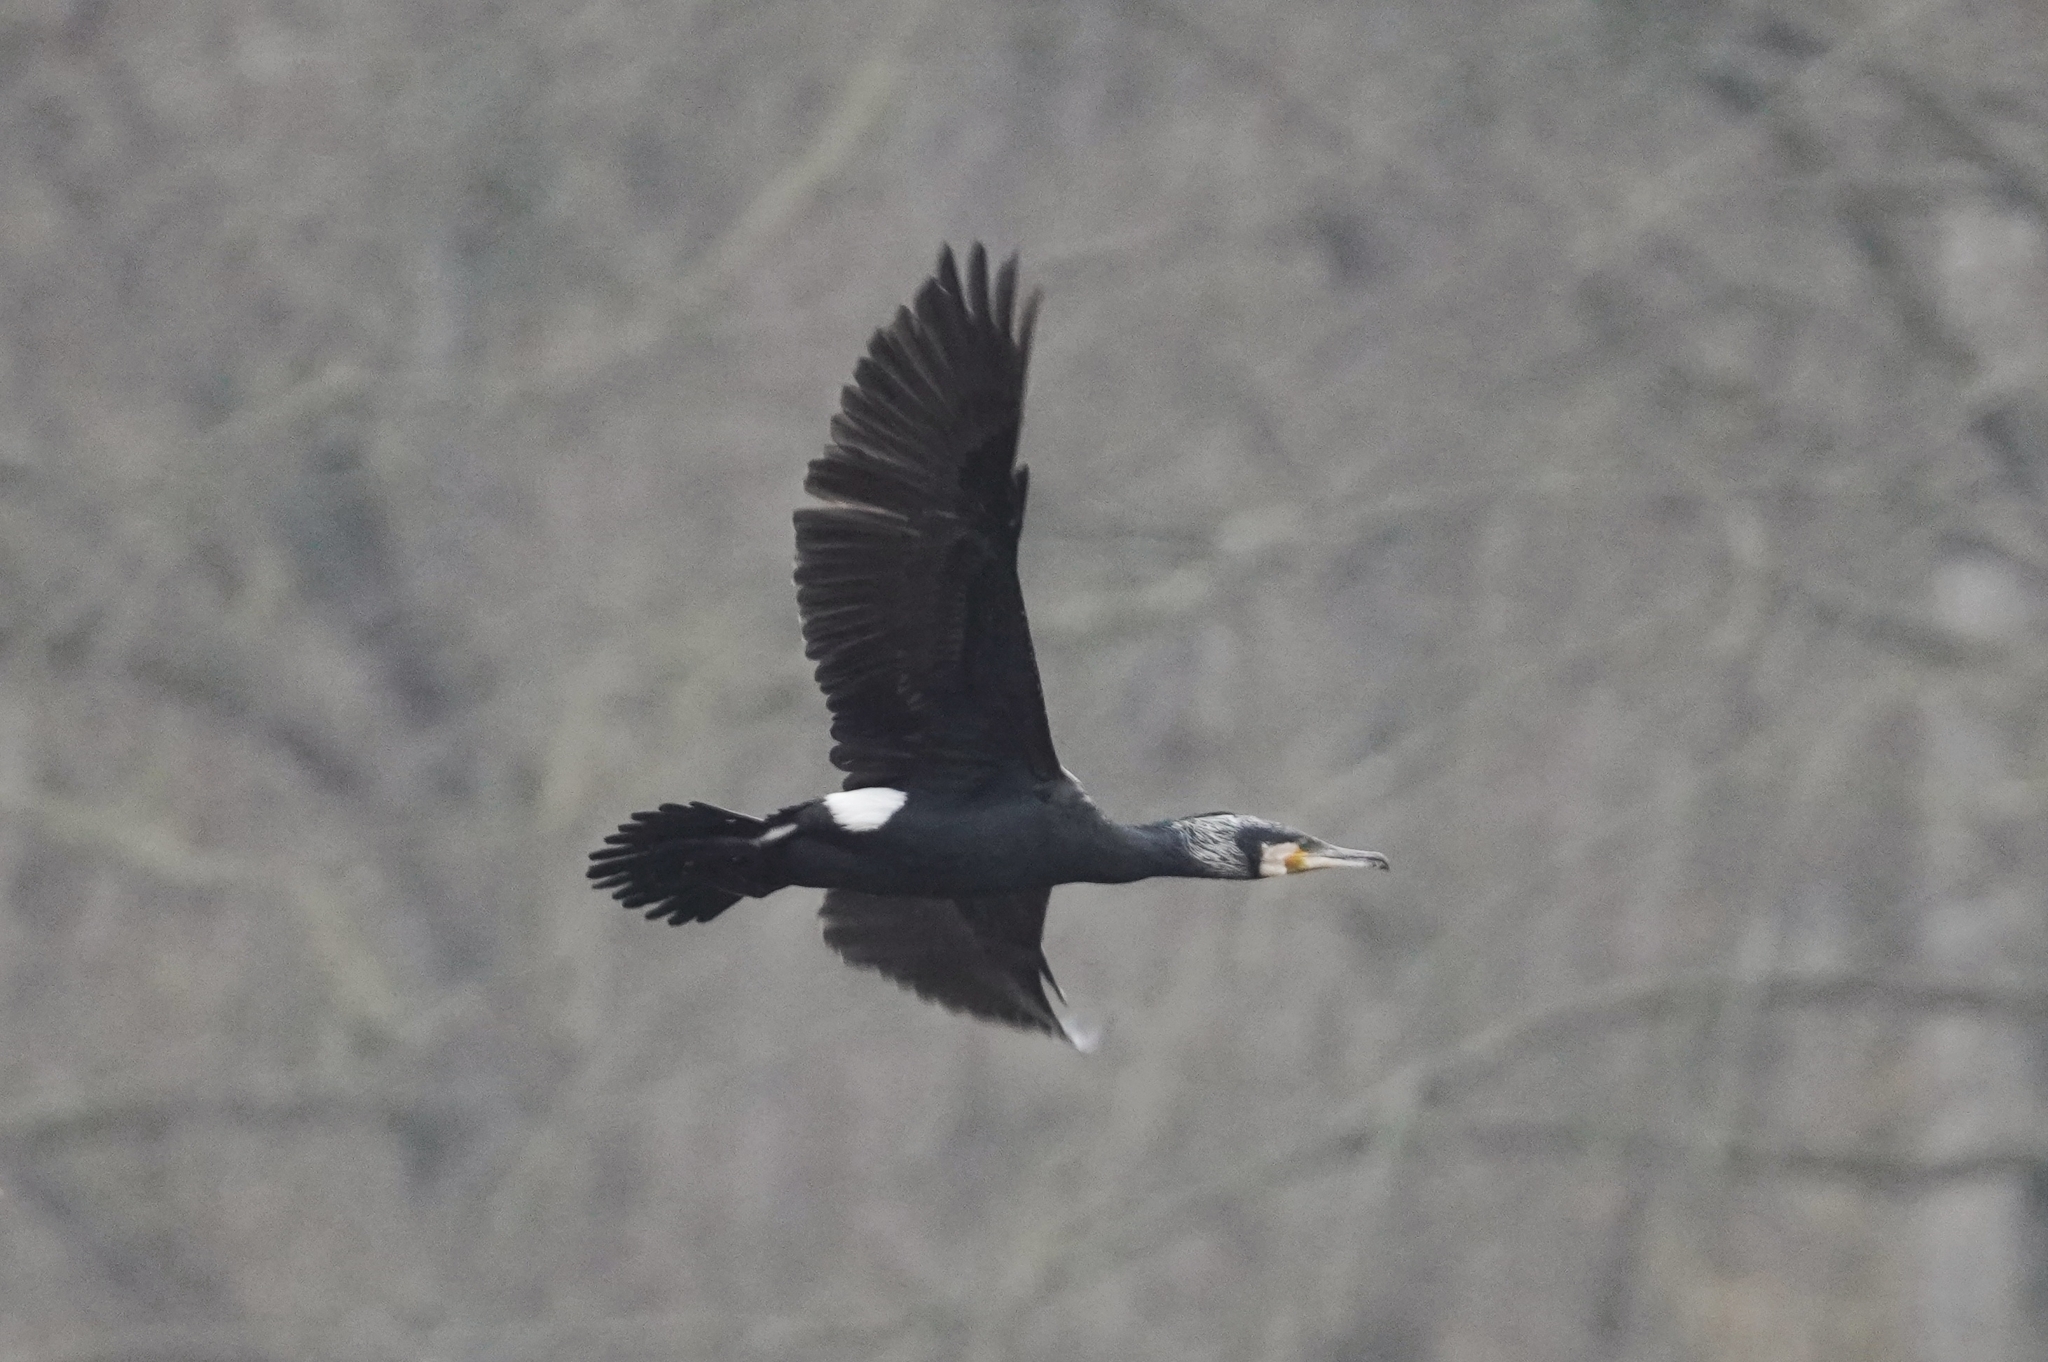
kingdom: Animalia
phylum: Chordata
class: Aves
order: Suliformes
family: Phalacrocoracidae
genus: Phalacrocorax
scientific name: Phalacrocorax carbo
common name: Great cormorant
